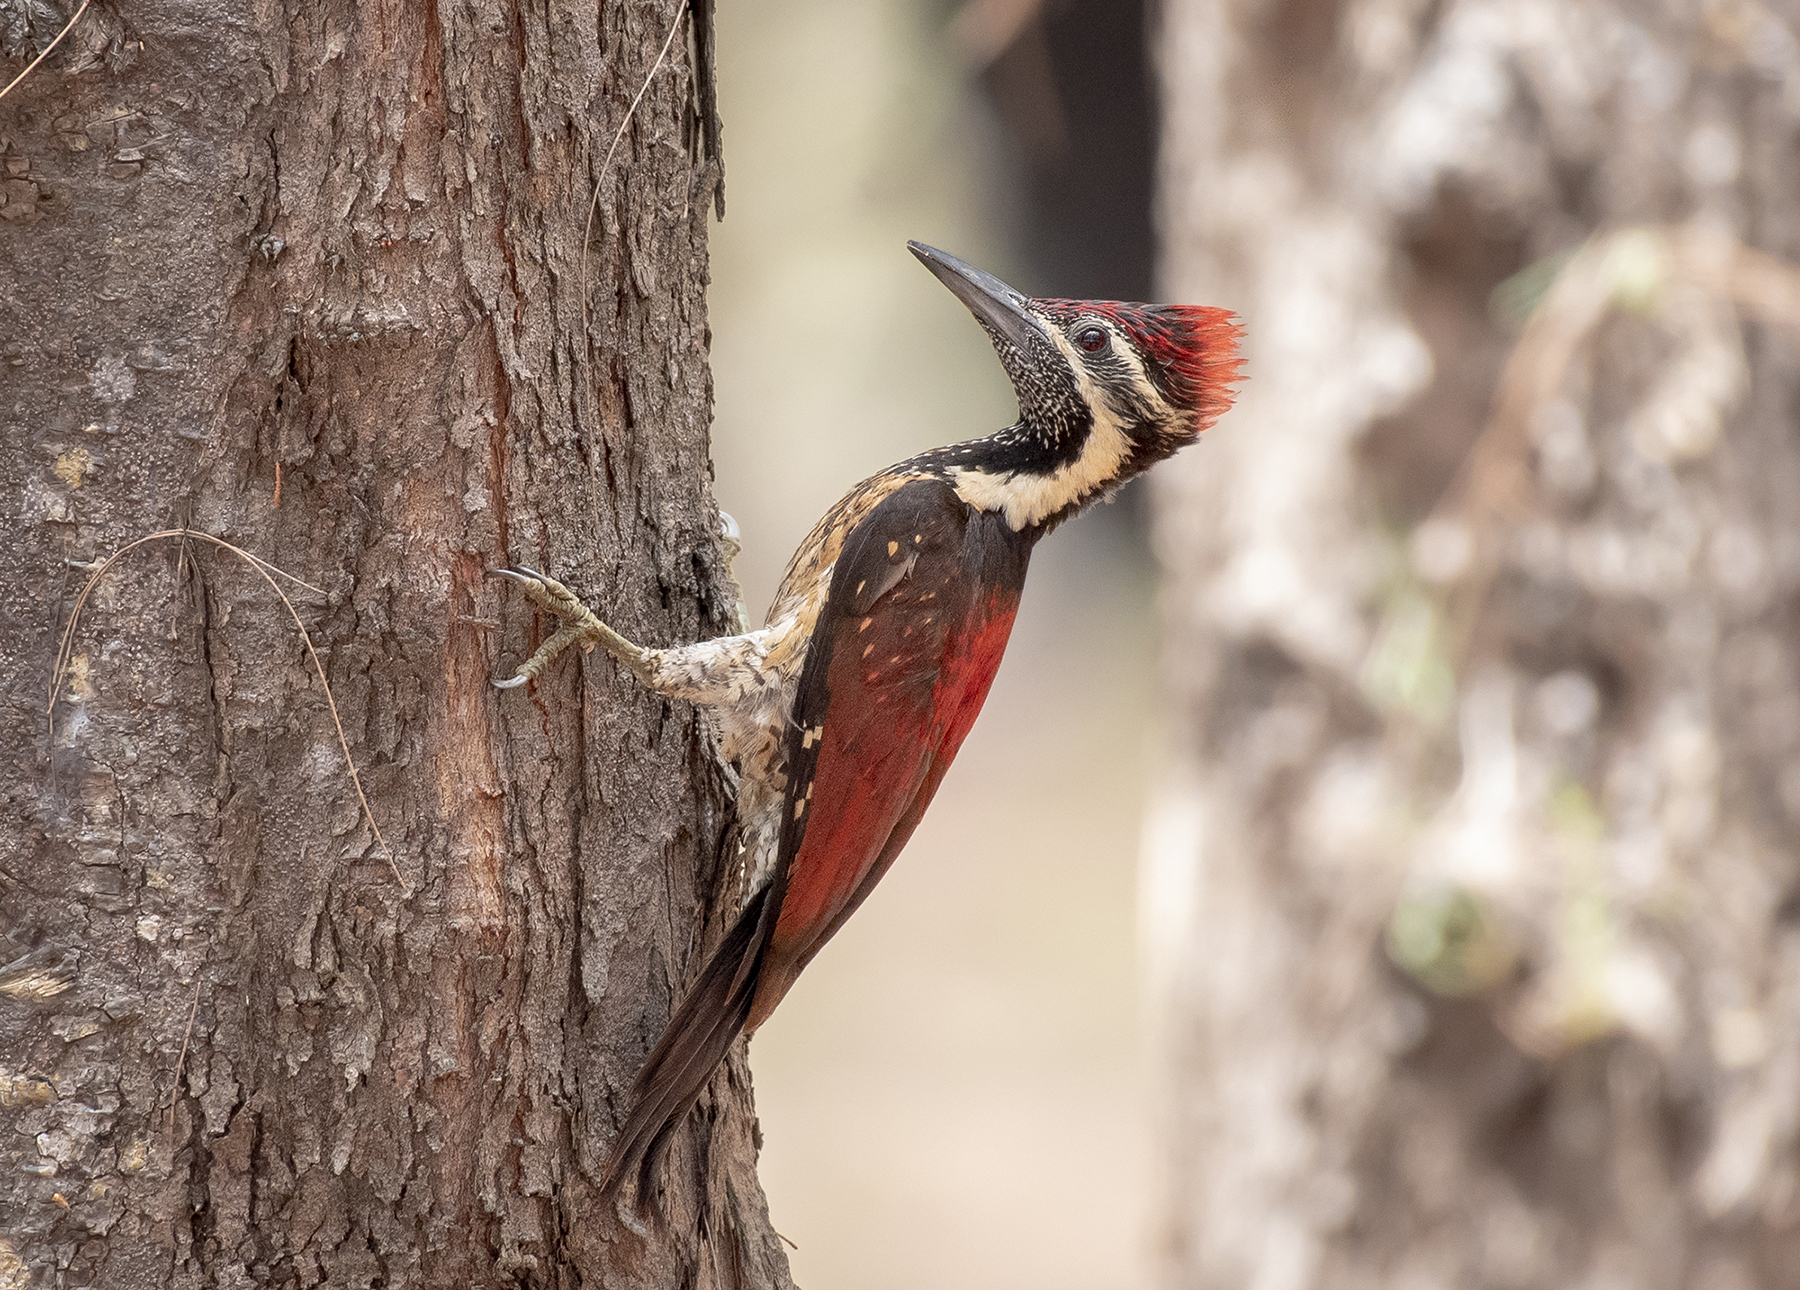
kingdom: Animalia
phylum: Chordata
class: Aves
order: Piciformes
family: Picidae
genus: Dinopium
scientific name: Dinopium psarodes
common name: Red-backed flameback
